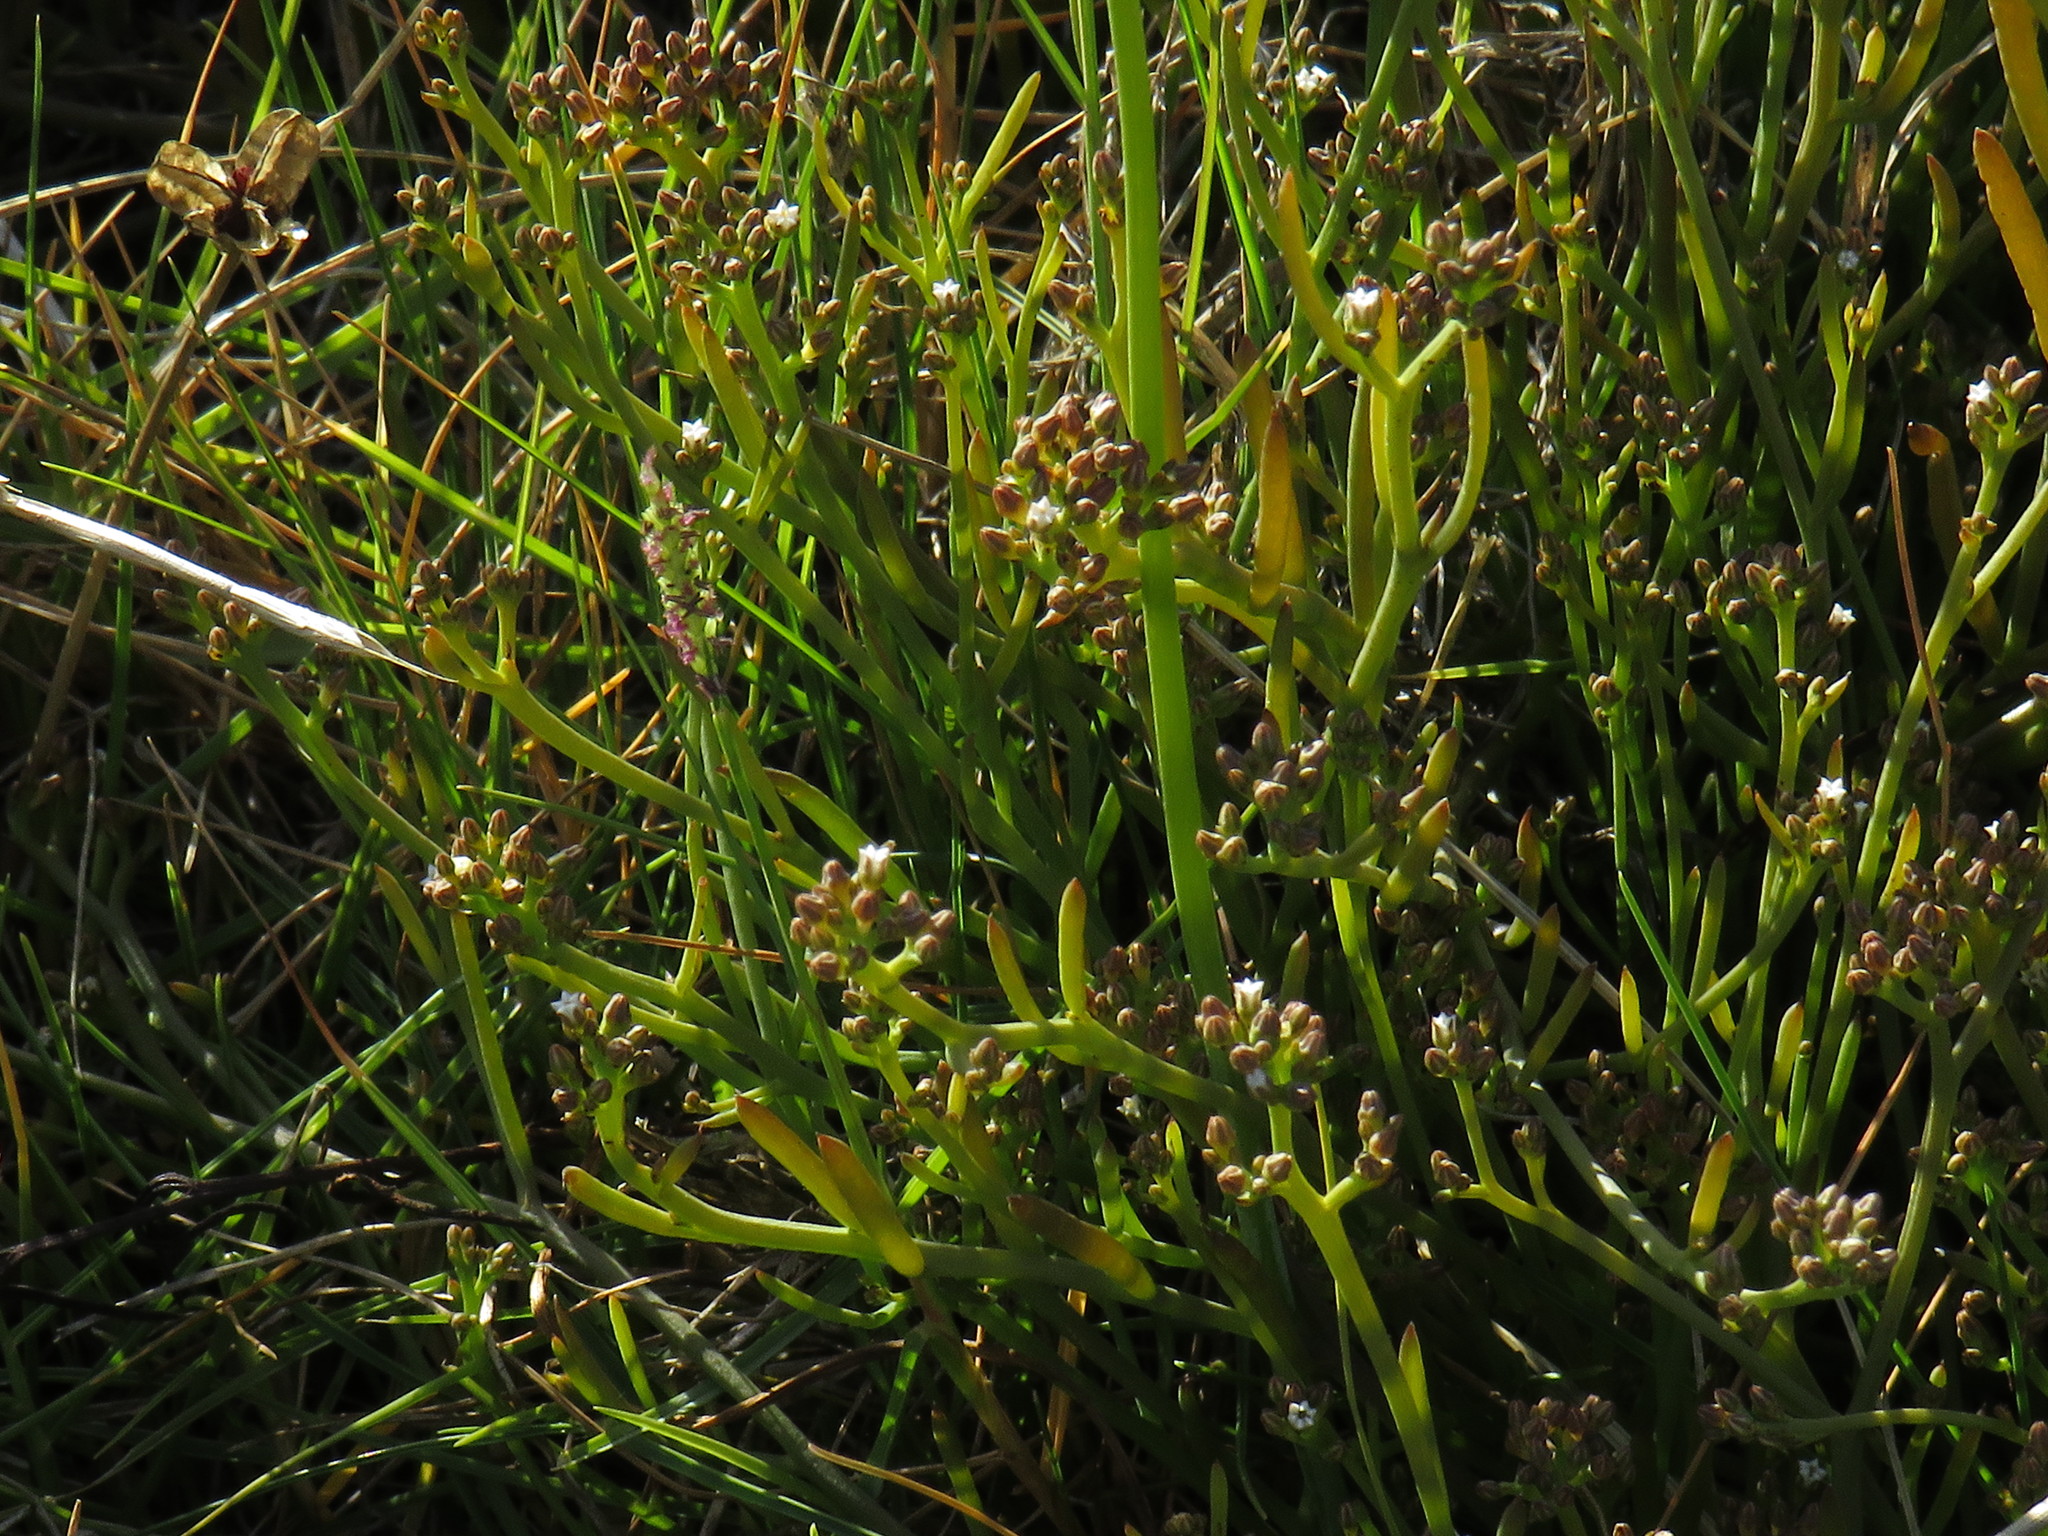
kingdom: Plantae
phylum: Tracheophyta
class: Magnoliopsida
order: Santalales
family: Thesiaceae
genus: Thesium
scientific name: Thesium frisea
